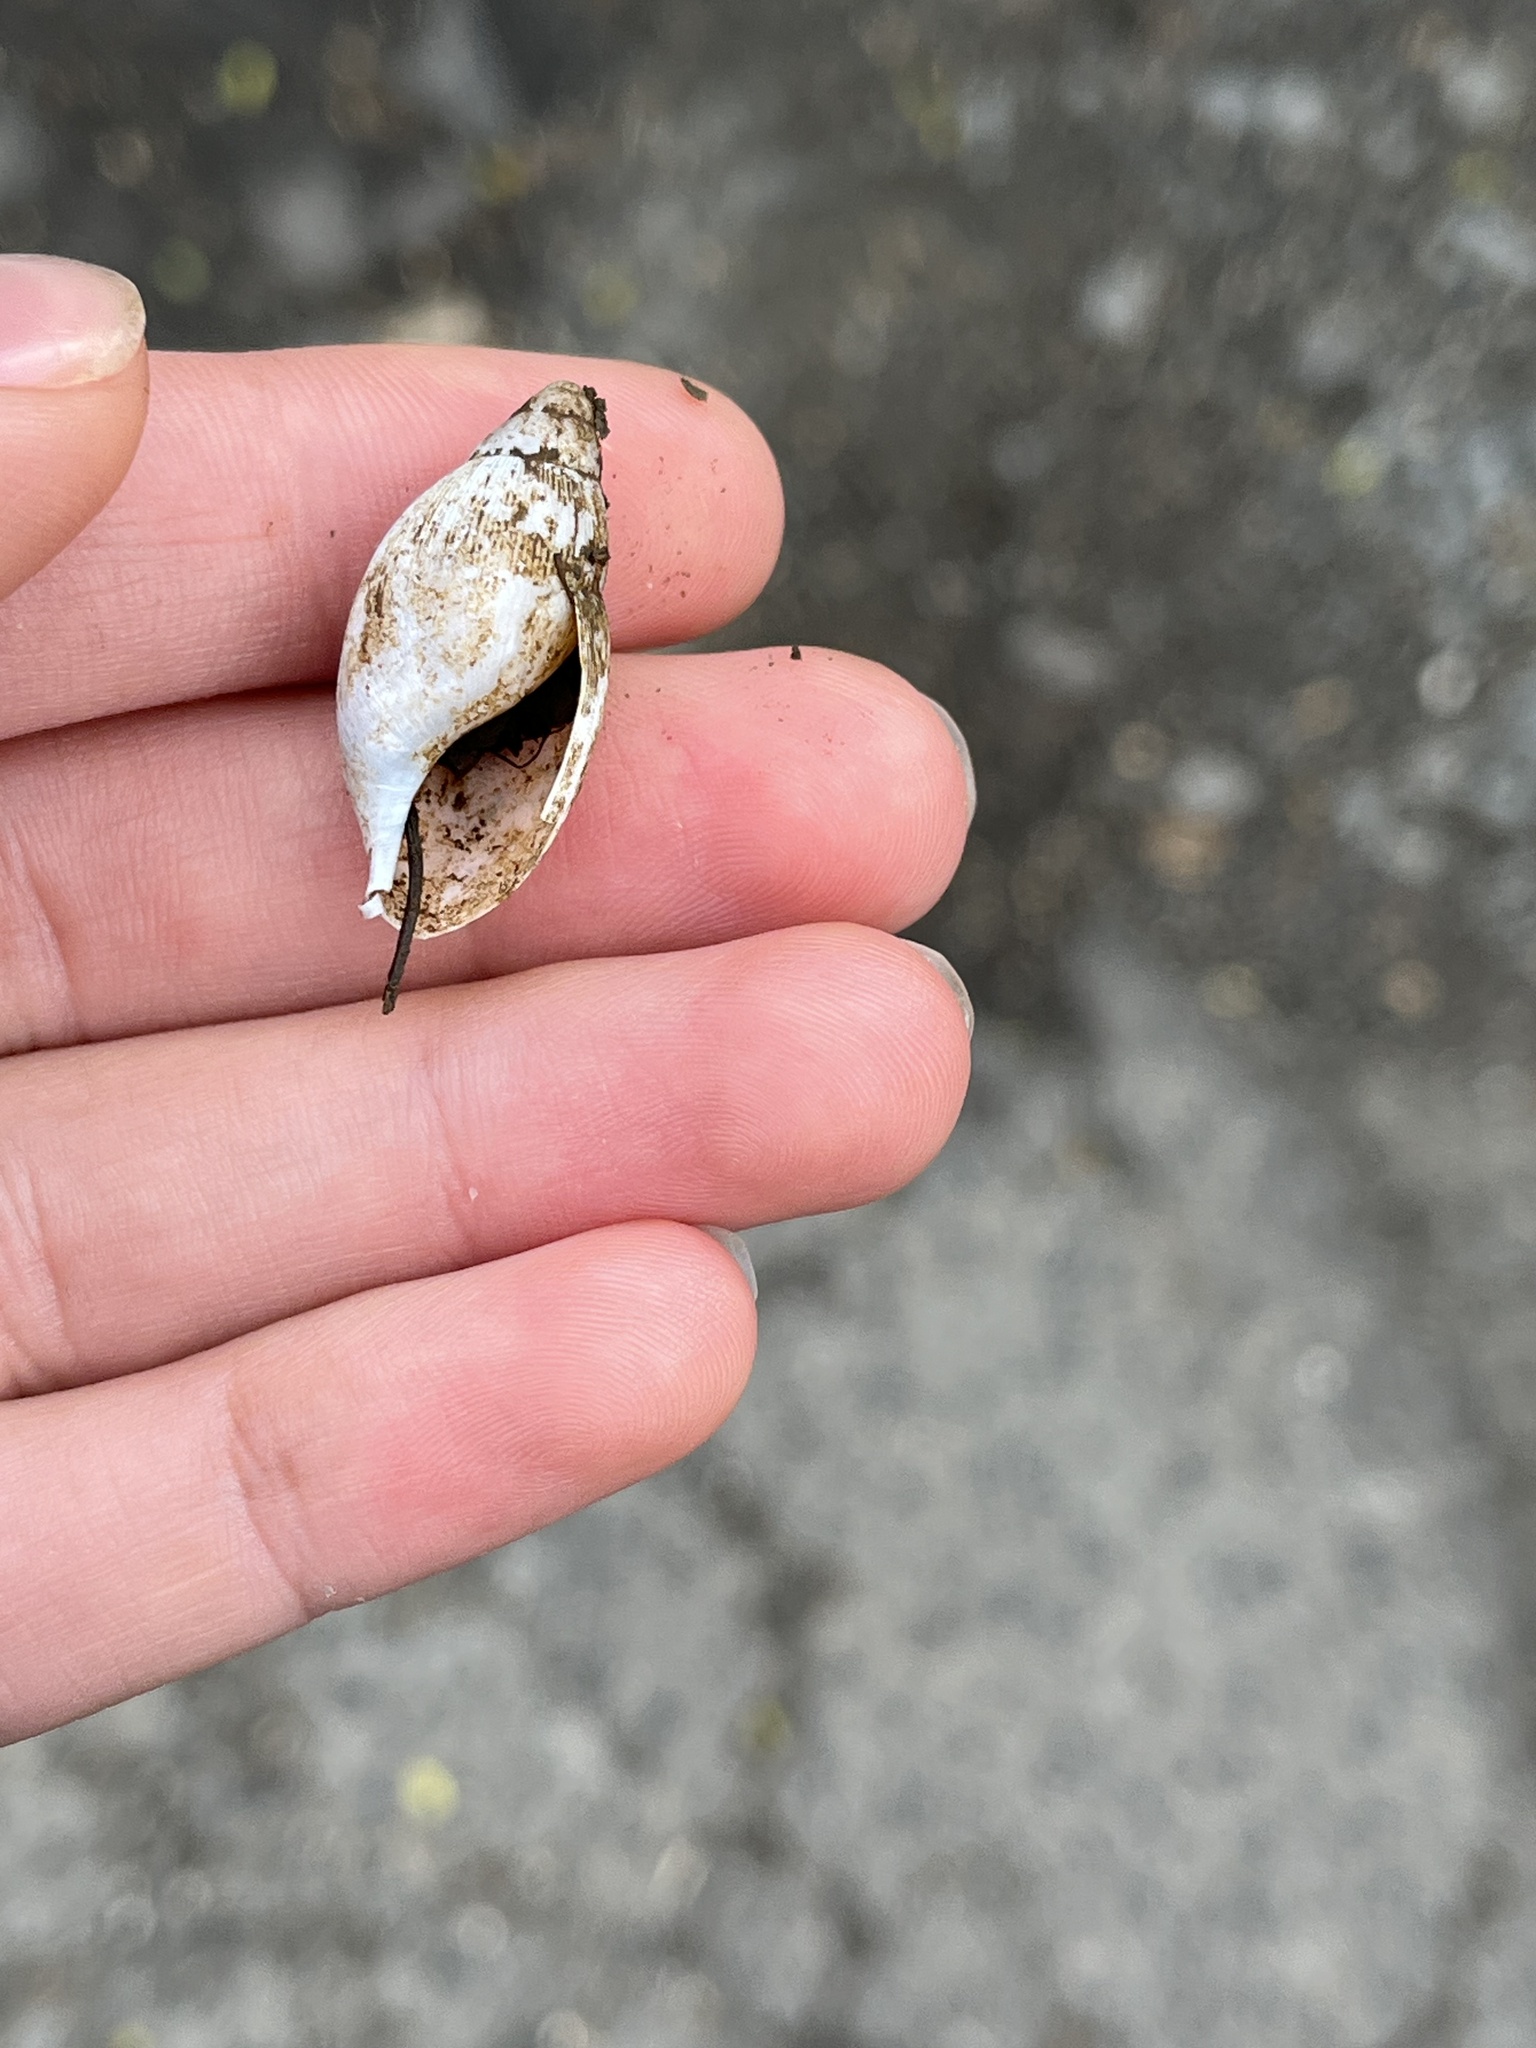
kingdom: Animalia
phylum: Mollusca
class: Gastropoda
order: Stylommatophora
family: Spiraxidae
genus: Euglandina
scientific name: Euglandina rosea
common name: Rosy wolfsnail
